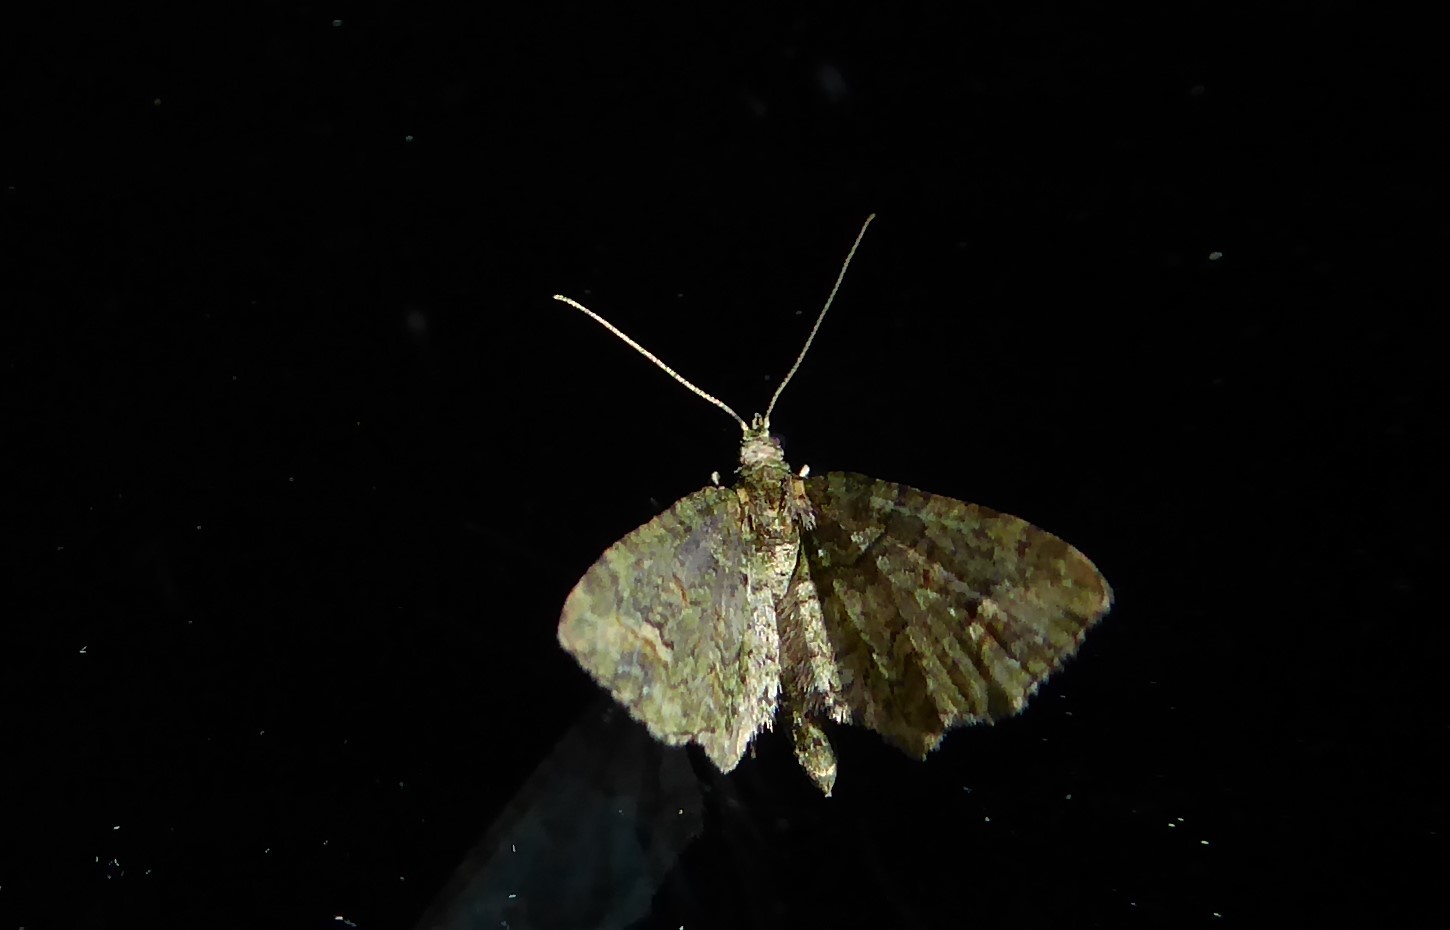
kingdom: Animalia
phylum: Arthropoda
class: Insecta
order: Lepidoptera
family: Geometridae
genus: Idaea
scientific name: Idaea mutanda
